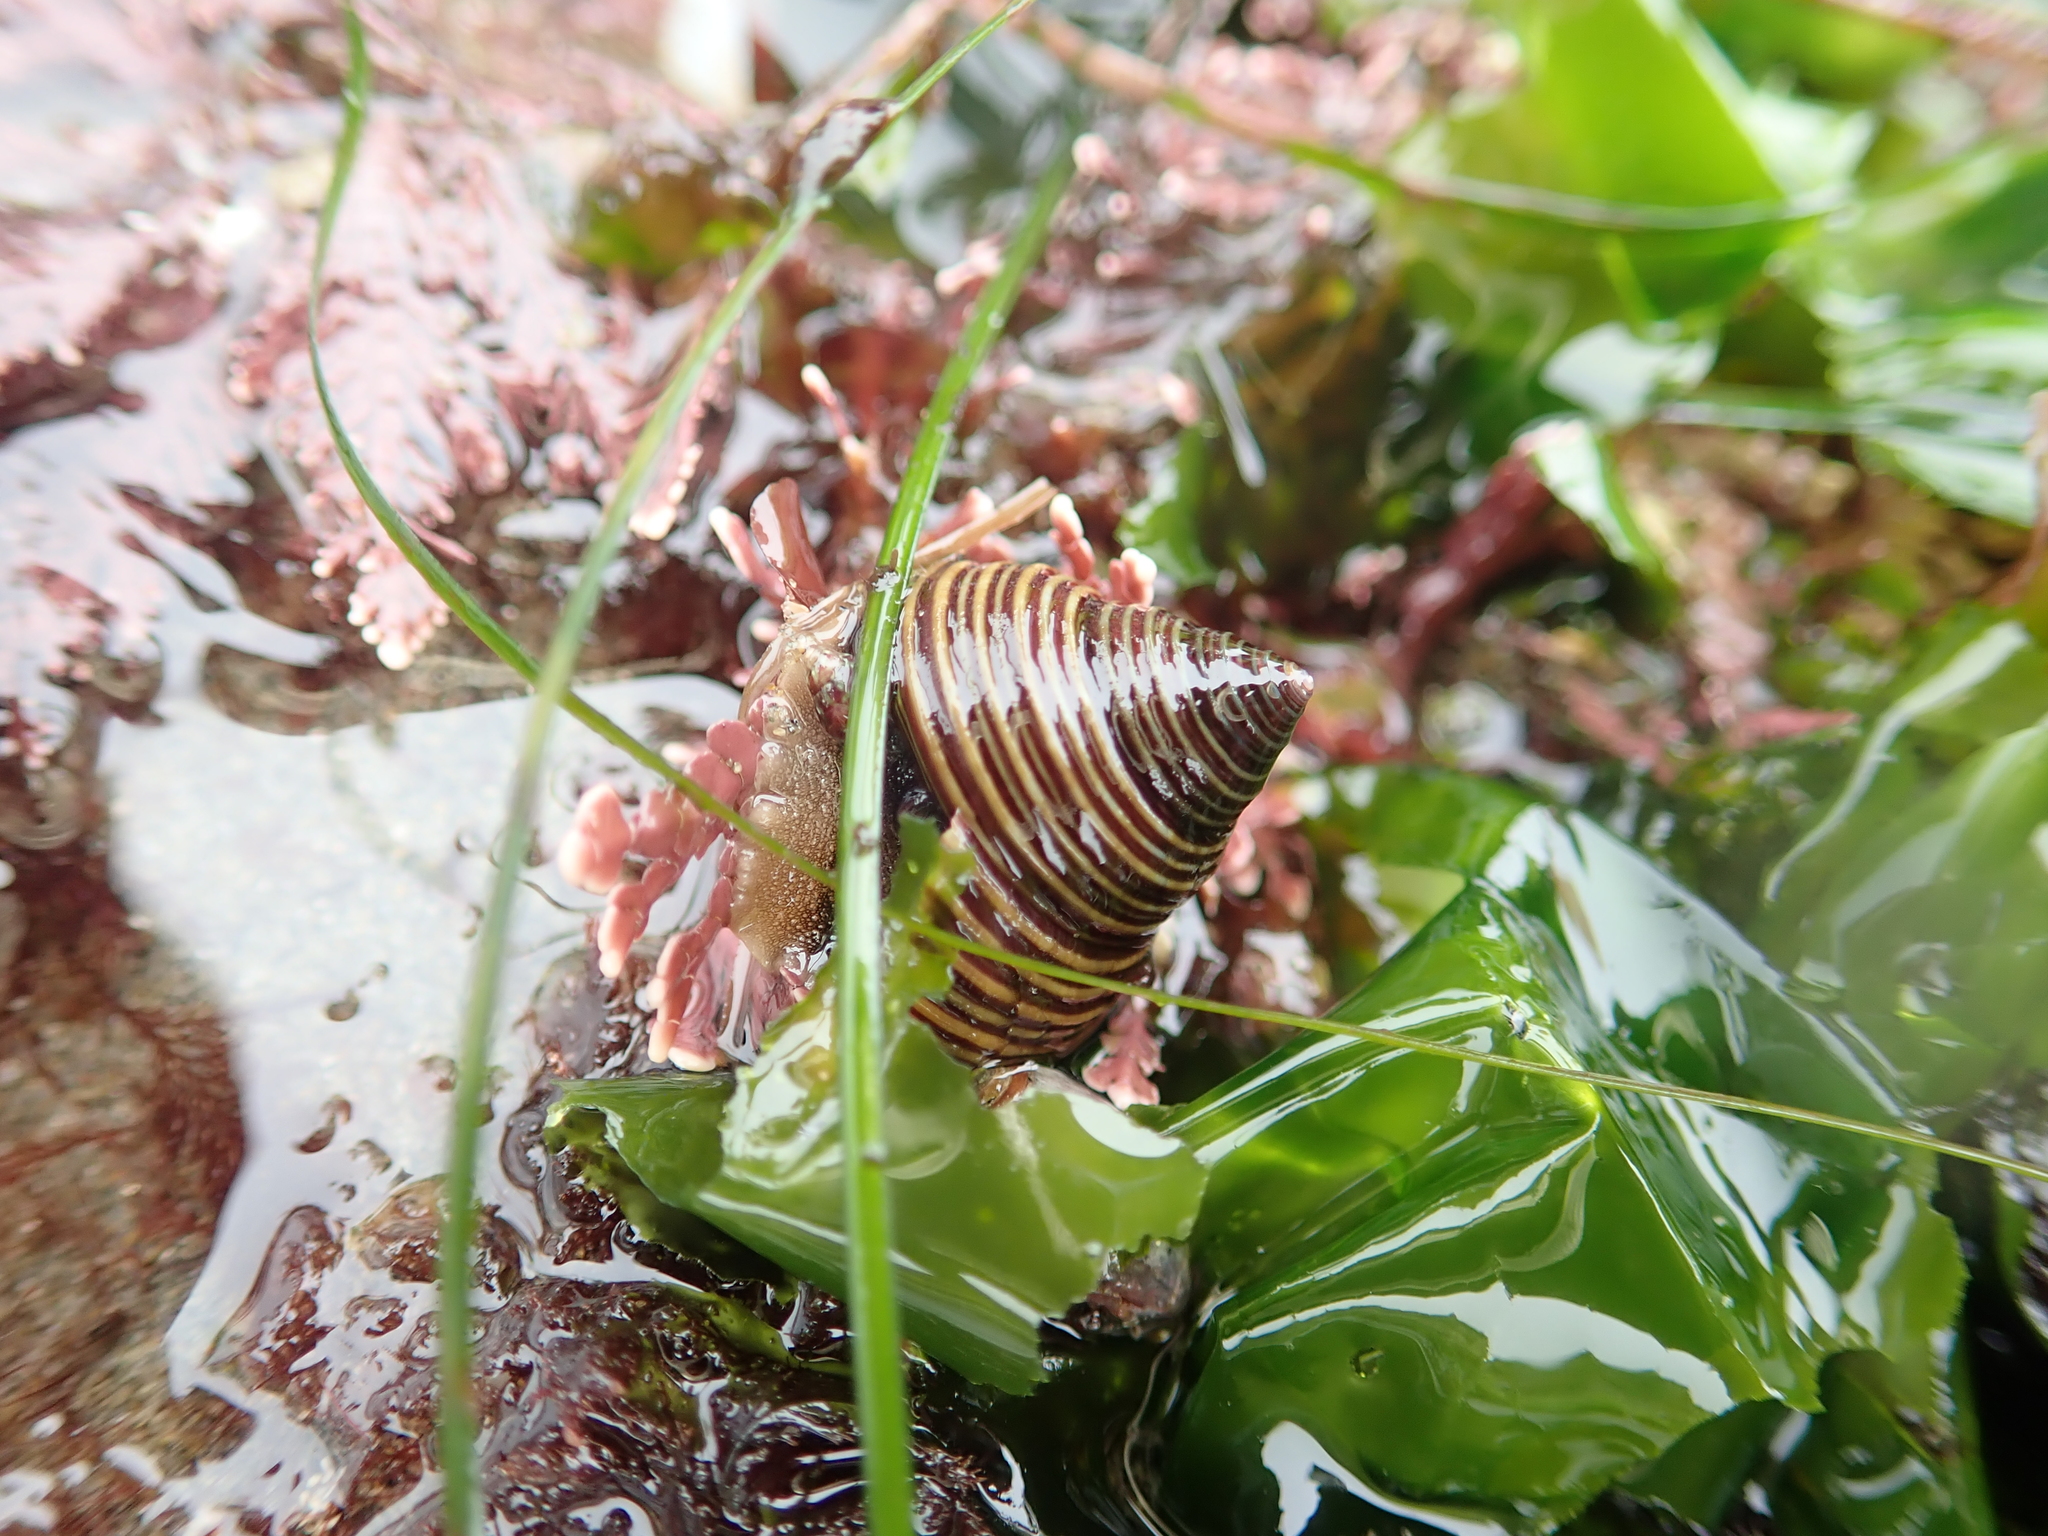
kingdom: Animalia
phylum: Mollusca
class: Gastropoda
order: Trochida
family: Calliostomatidae
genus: Calliostoma
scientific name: Calliostoma ligatum
